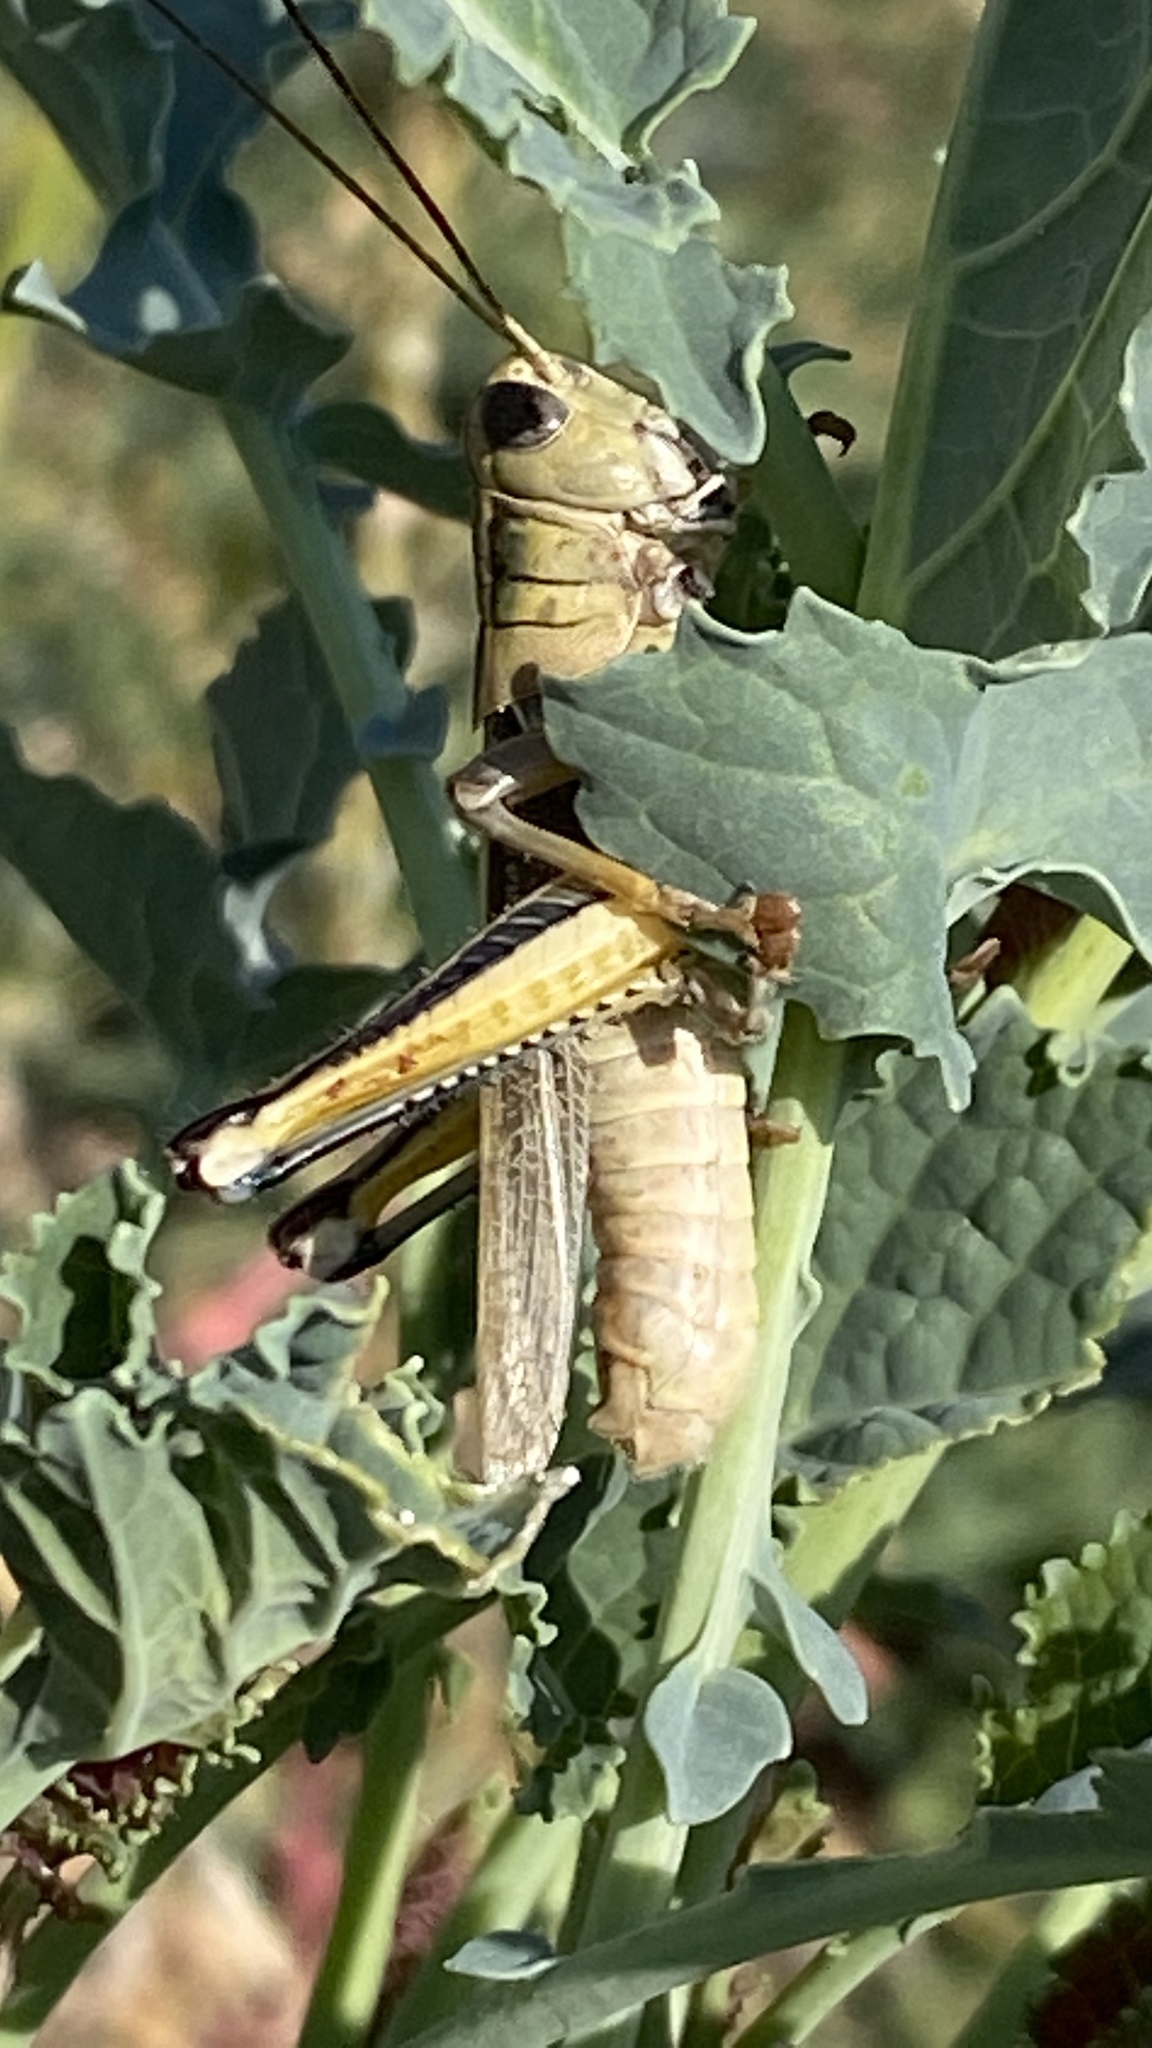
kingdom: Animalia
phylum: Arthropoda
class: Insecta
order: Orthoptera
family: Acrididae
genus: Melanoplus
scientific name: Melanoplus bivittatus
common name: Two-striped grasshopper
